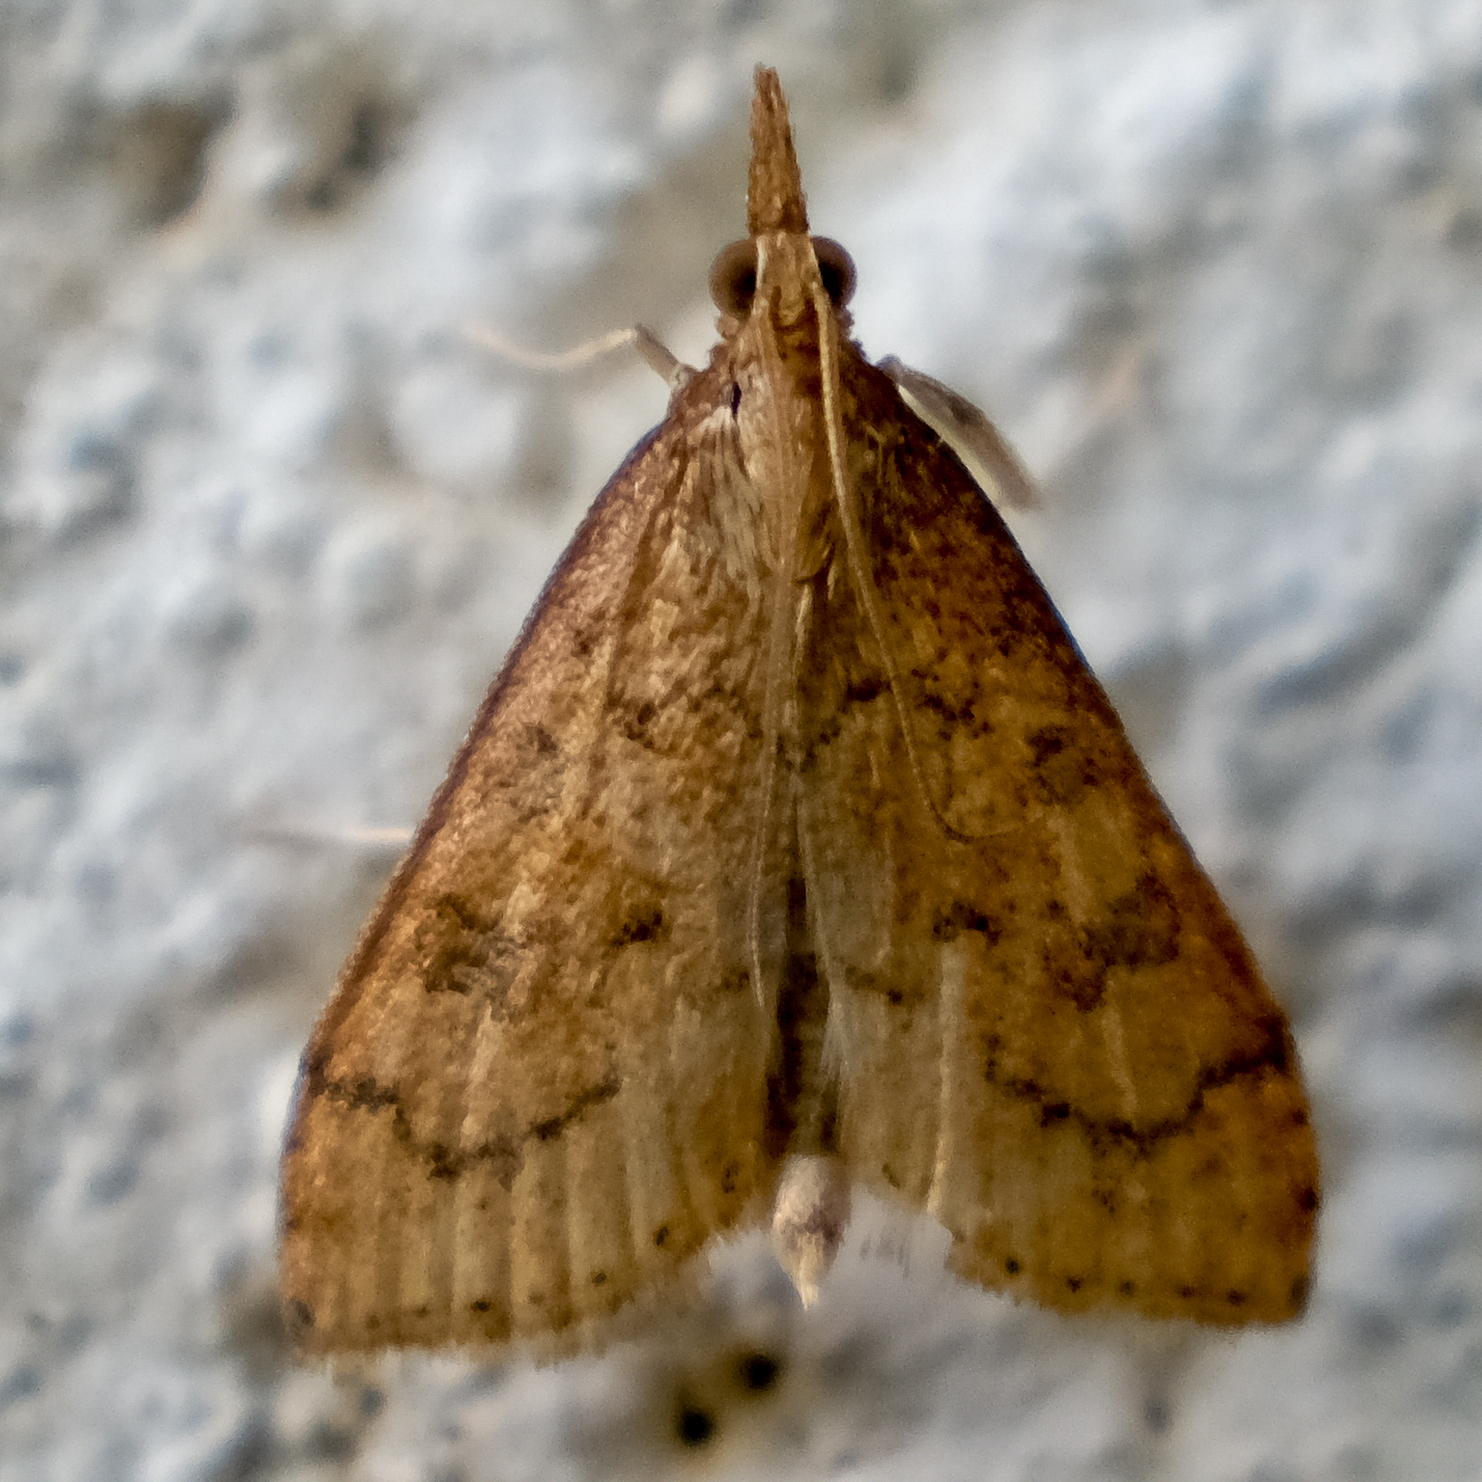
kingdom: Animalia
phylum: Arthropoda
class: Insecta
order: Lepidoptera
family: Crambidae
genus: Udea
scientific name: Udea rubigalis
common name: Celery leaftier moth
